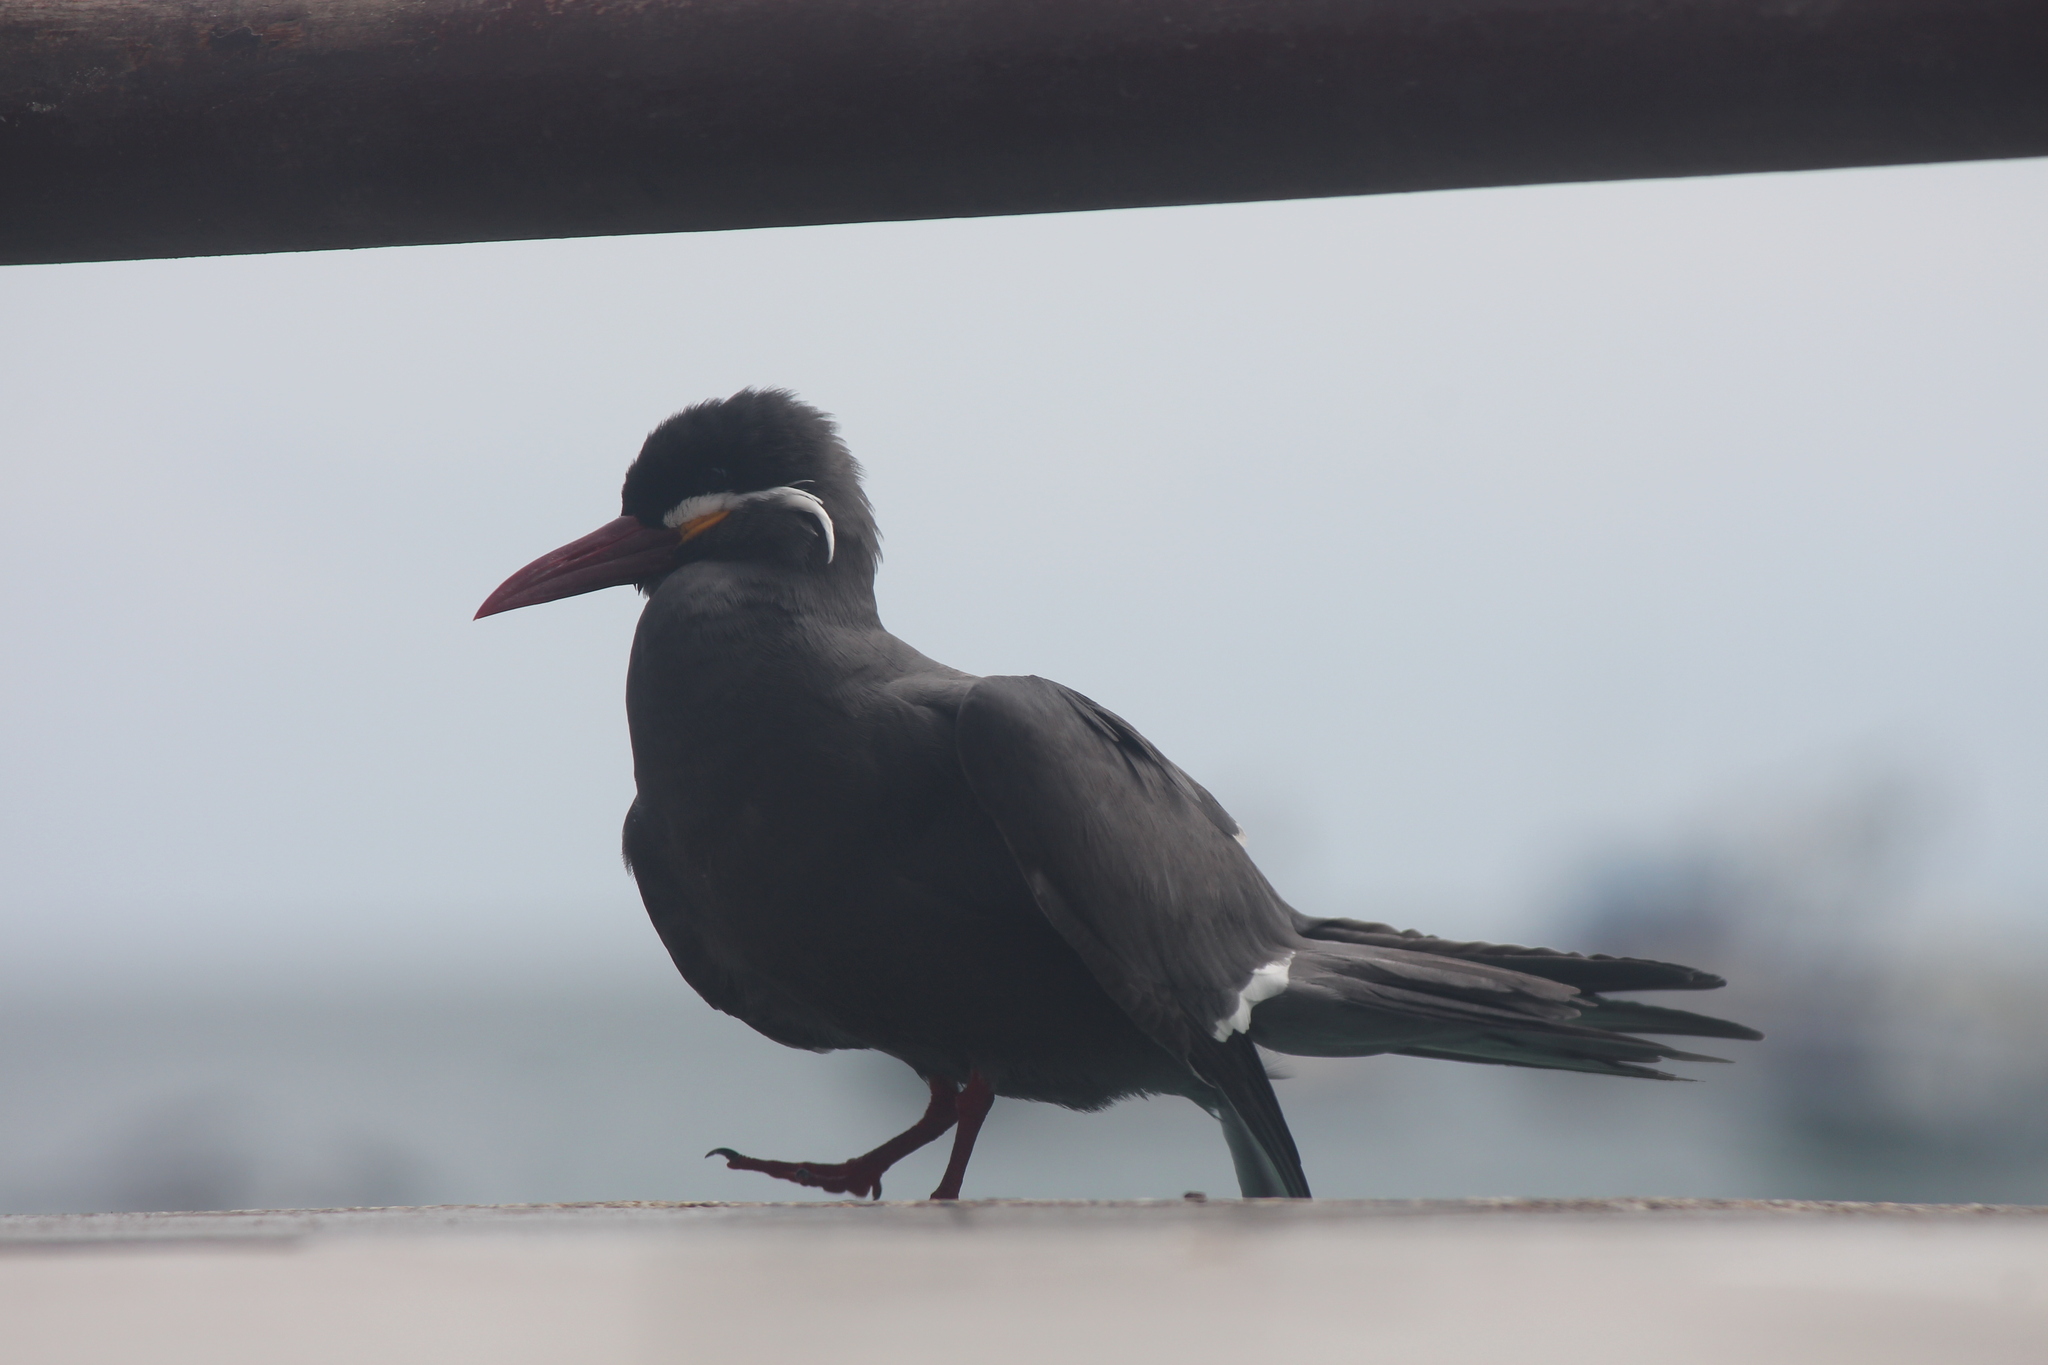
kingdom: Animalia
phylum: Chordata
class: Aves
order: Charadriiformes
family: Laridae
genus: Larosterna
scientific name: Larosterna inca
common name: Inca tern
